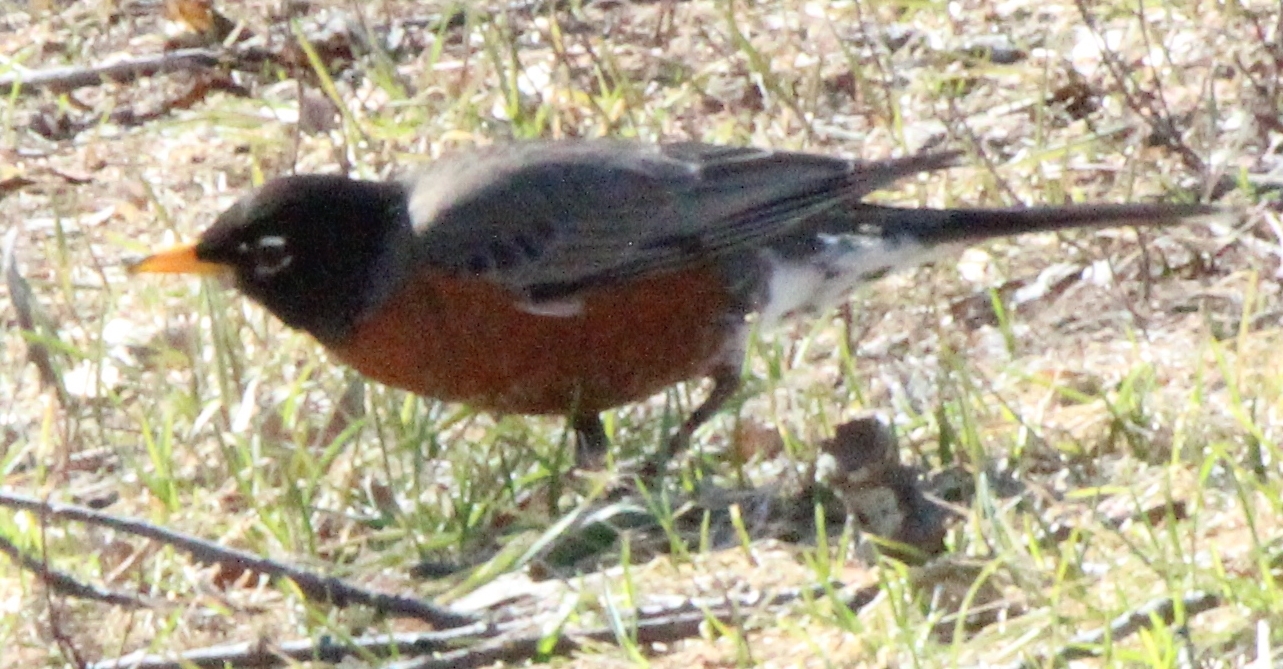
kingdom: Animalia
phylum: Chordata
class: Aves
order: Passeriformes
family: Turdidae
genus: Turdus
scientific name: Turdus migratorius
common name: American robin
